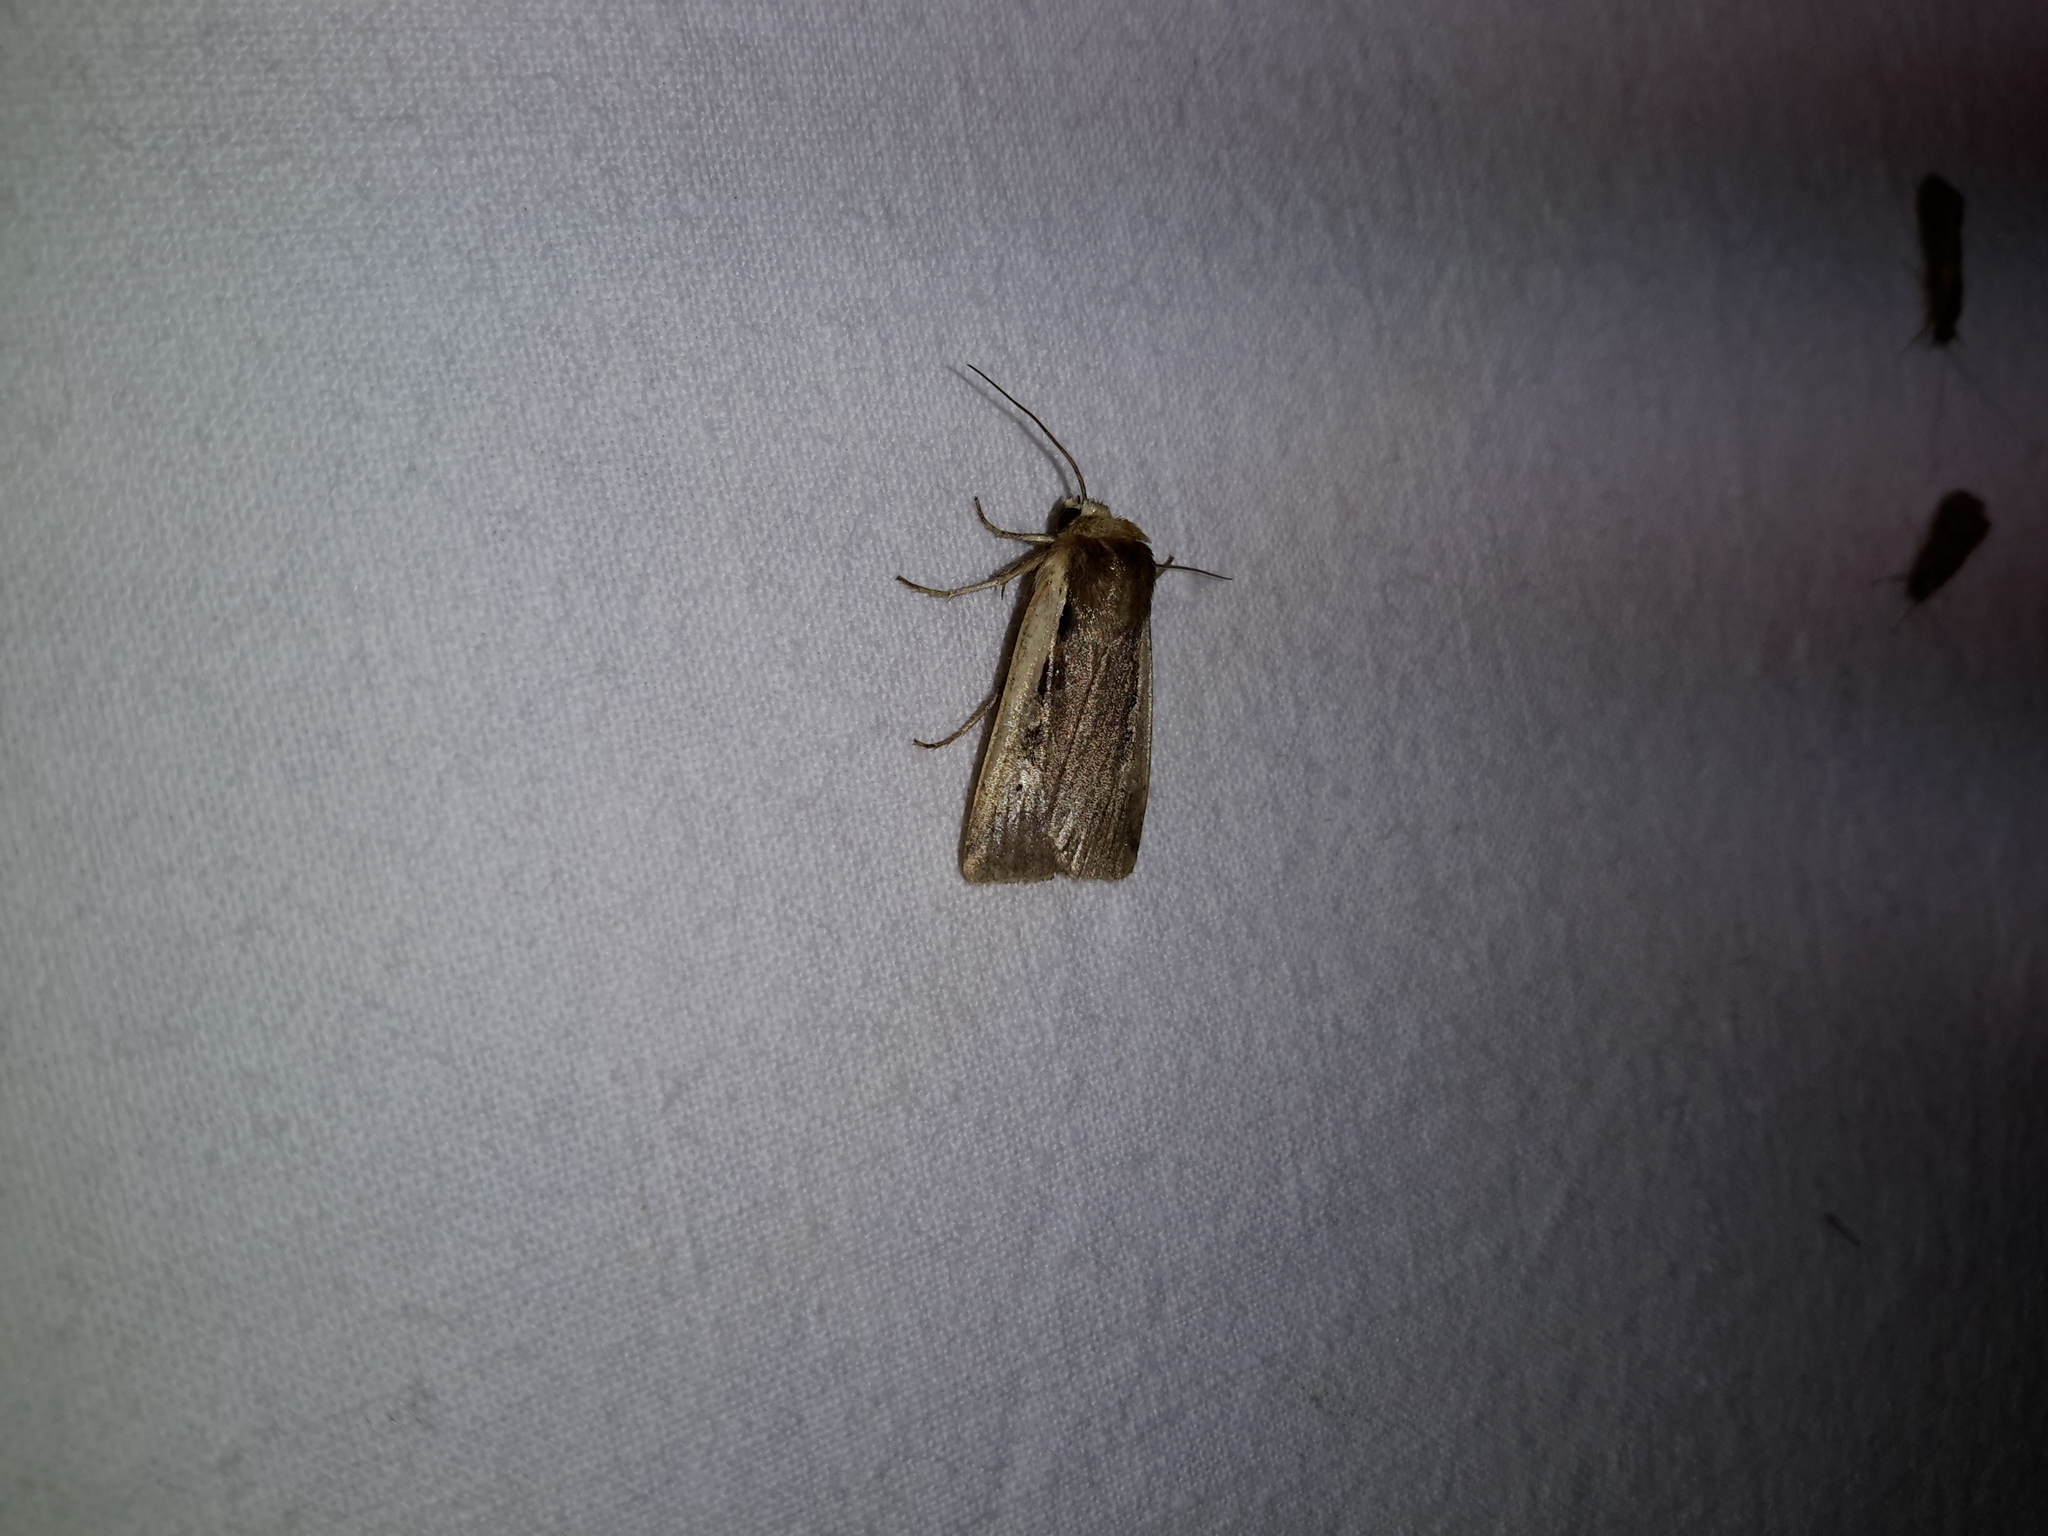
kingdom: Animalia
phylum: Arthropoda
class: Insecta
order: Lepidoptera
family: Noctuidae
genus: Ochropleura
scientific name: Ochropleura plecta
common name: Flame shoulder
